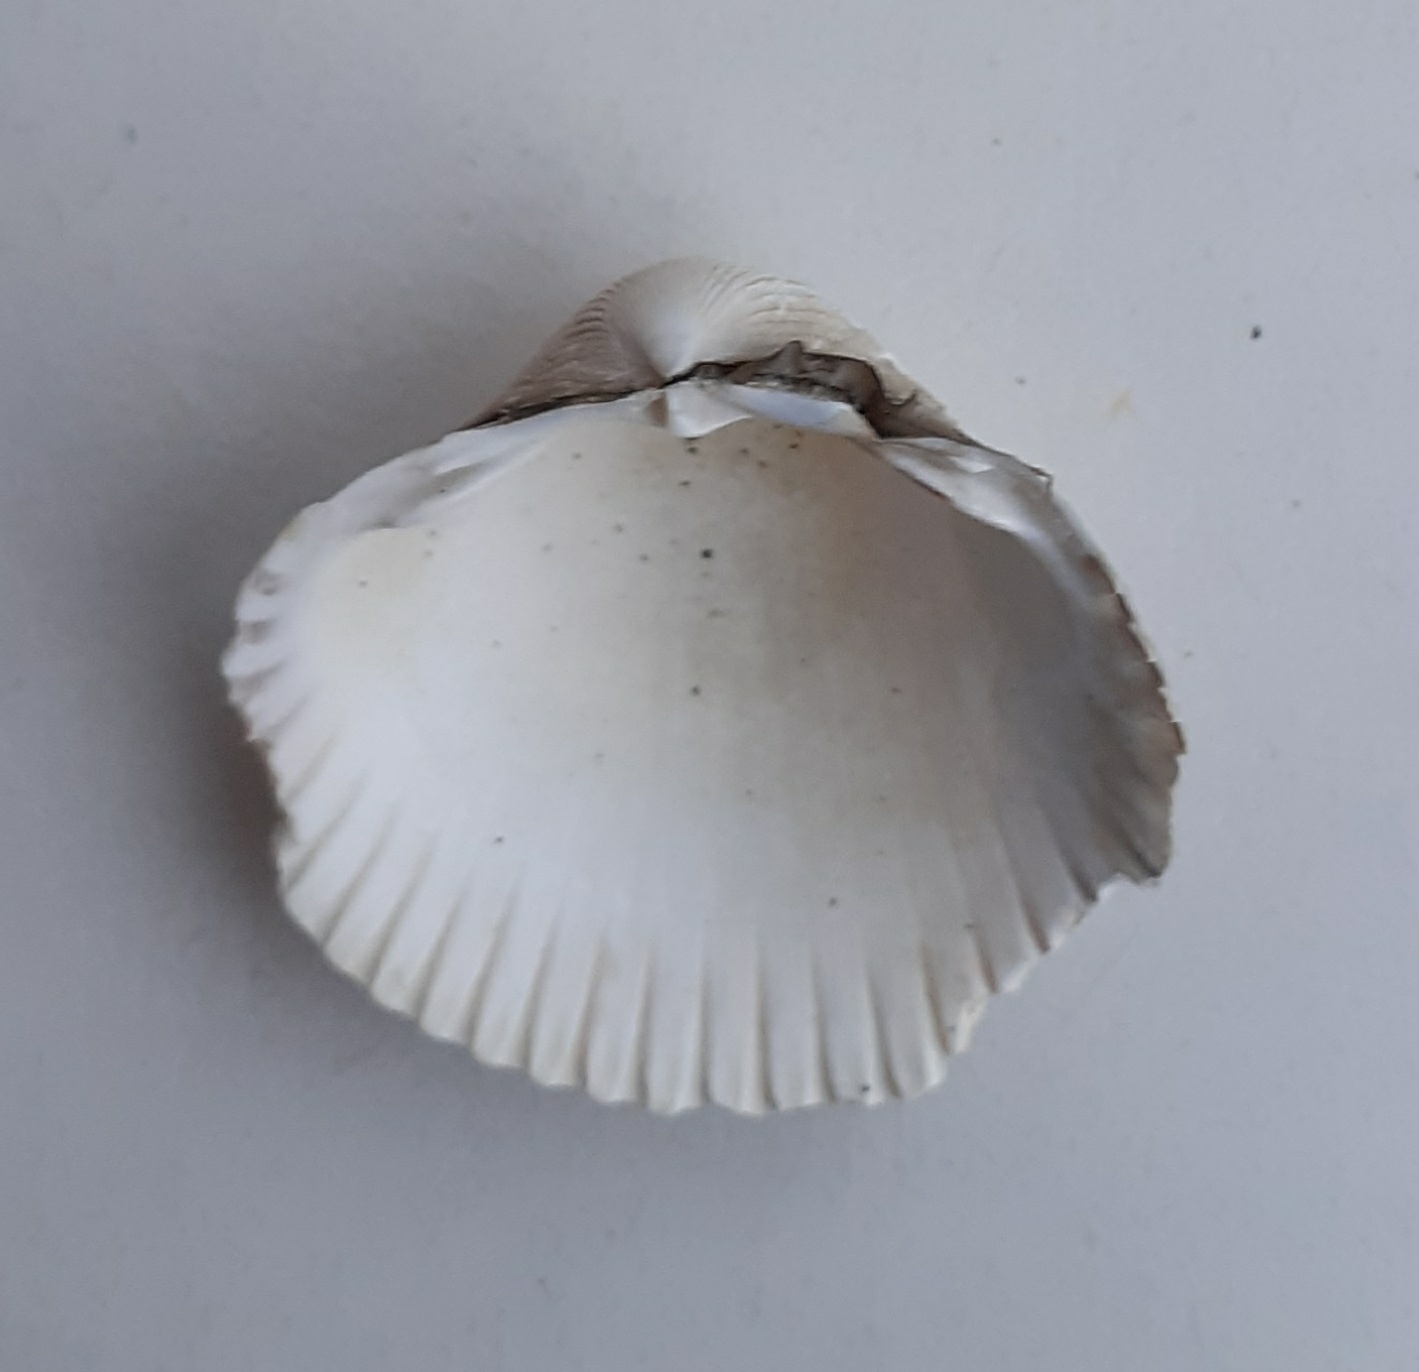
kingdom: Animalia
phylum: Mollusca
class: Bivalvia
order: Cardiida
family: Cardiidae
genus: Cerastoderma
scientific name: Cerastoderma edule
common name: Common cockle
